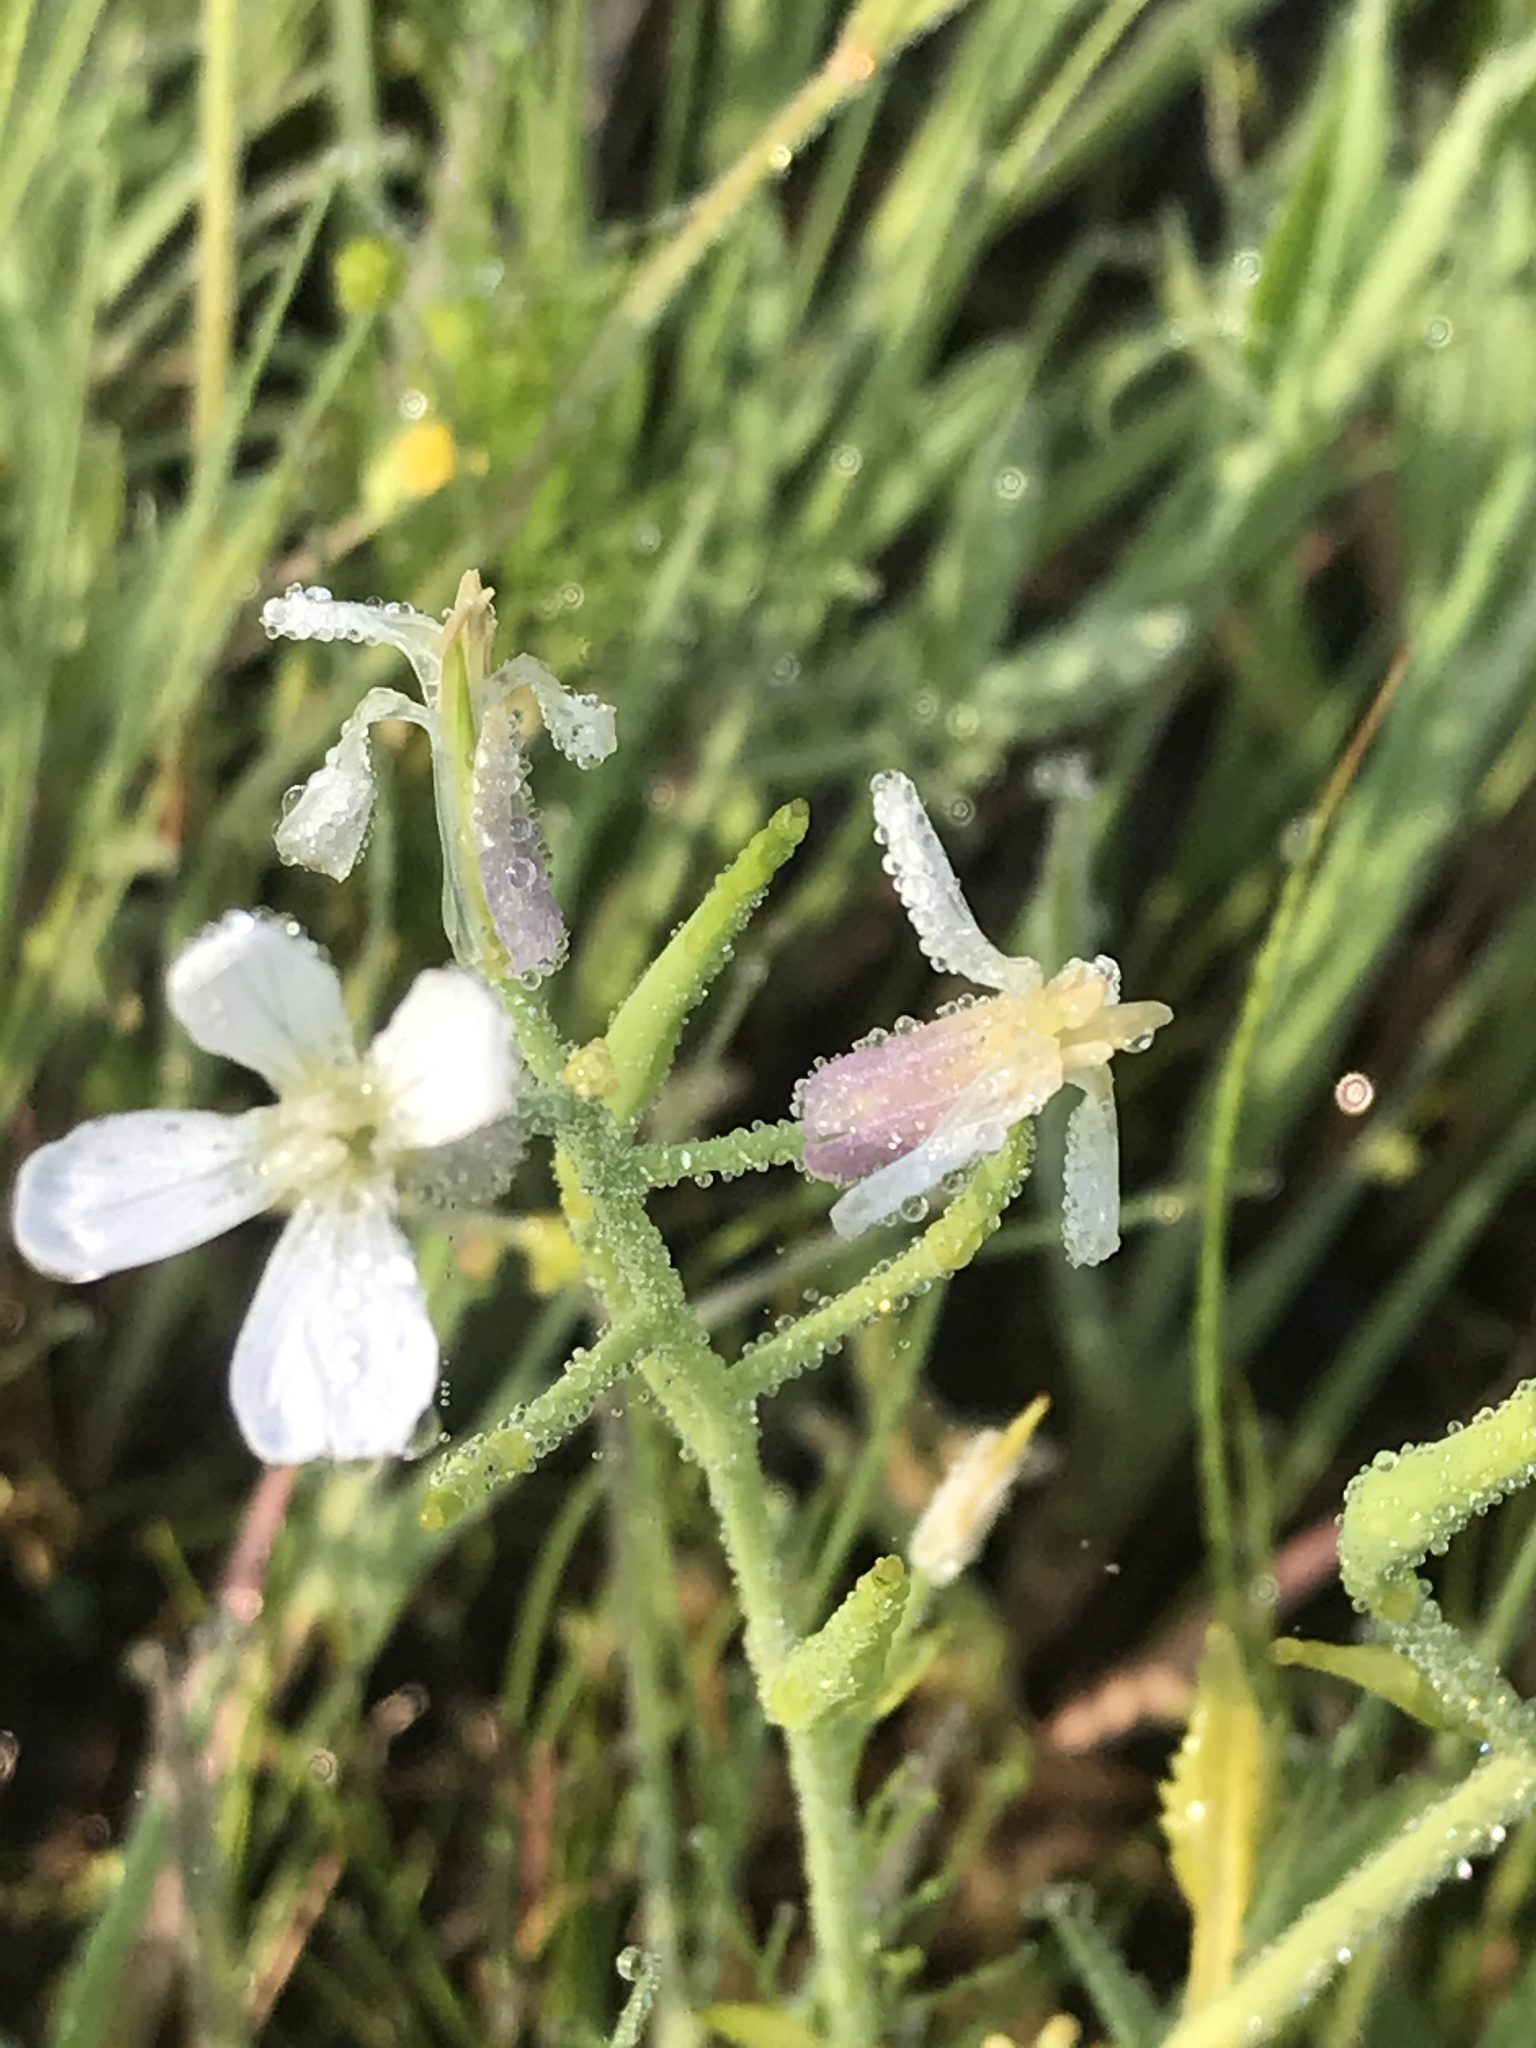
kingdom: Plantae
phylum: Tracheophyta
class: Magnoliopsida
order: Brassicales
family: Brassicaceae
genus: Raphanus
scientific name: Raphanus sativus
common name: Cultivated radish
